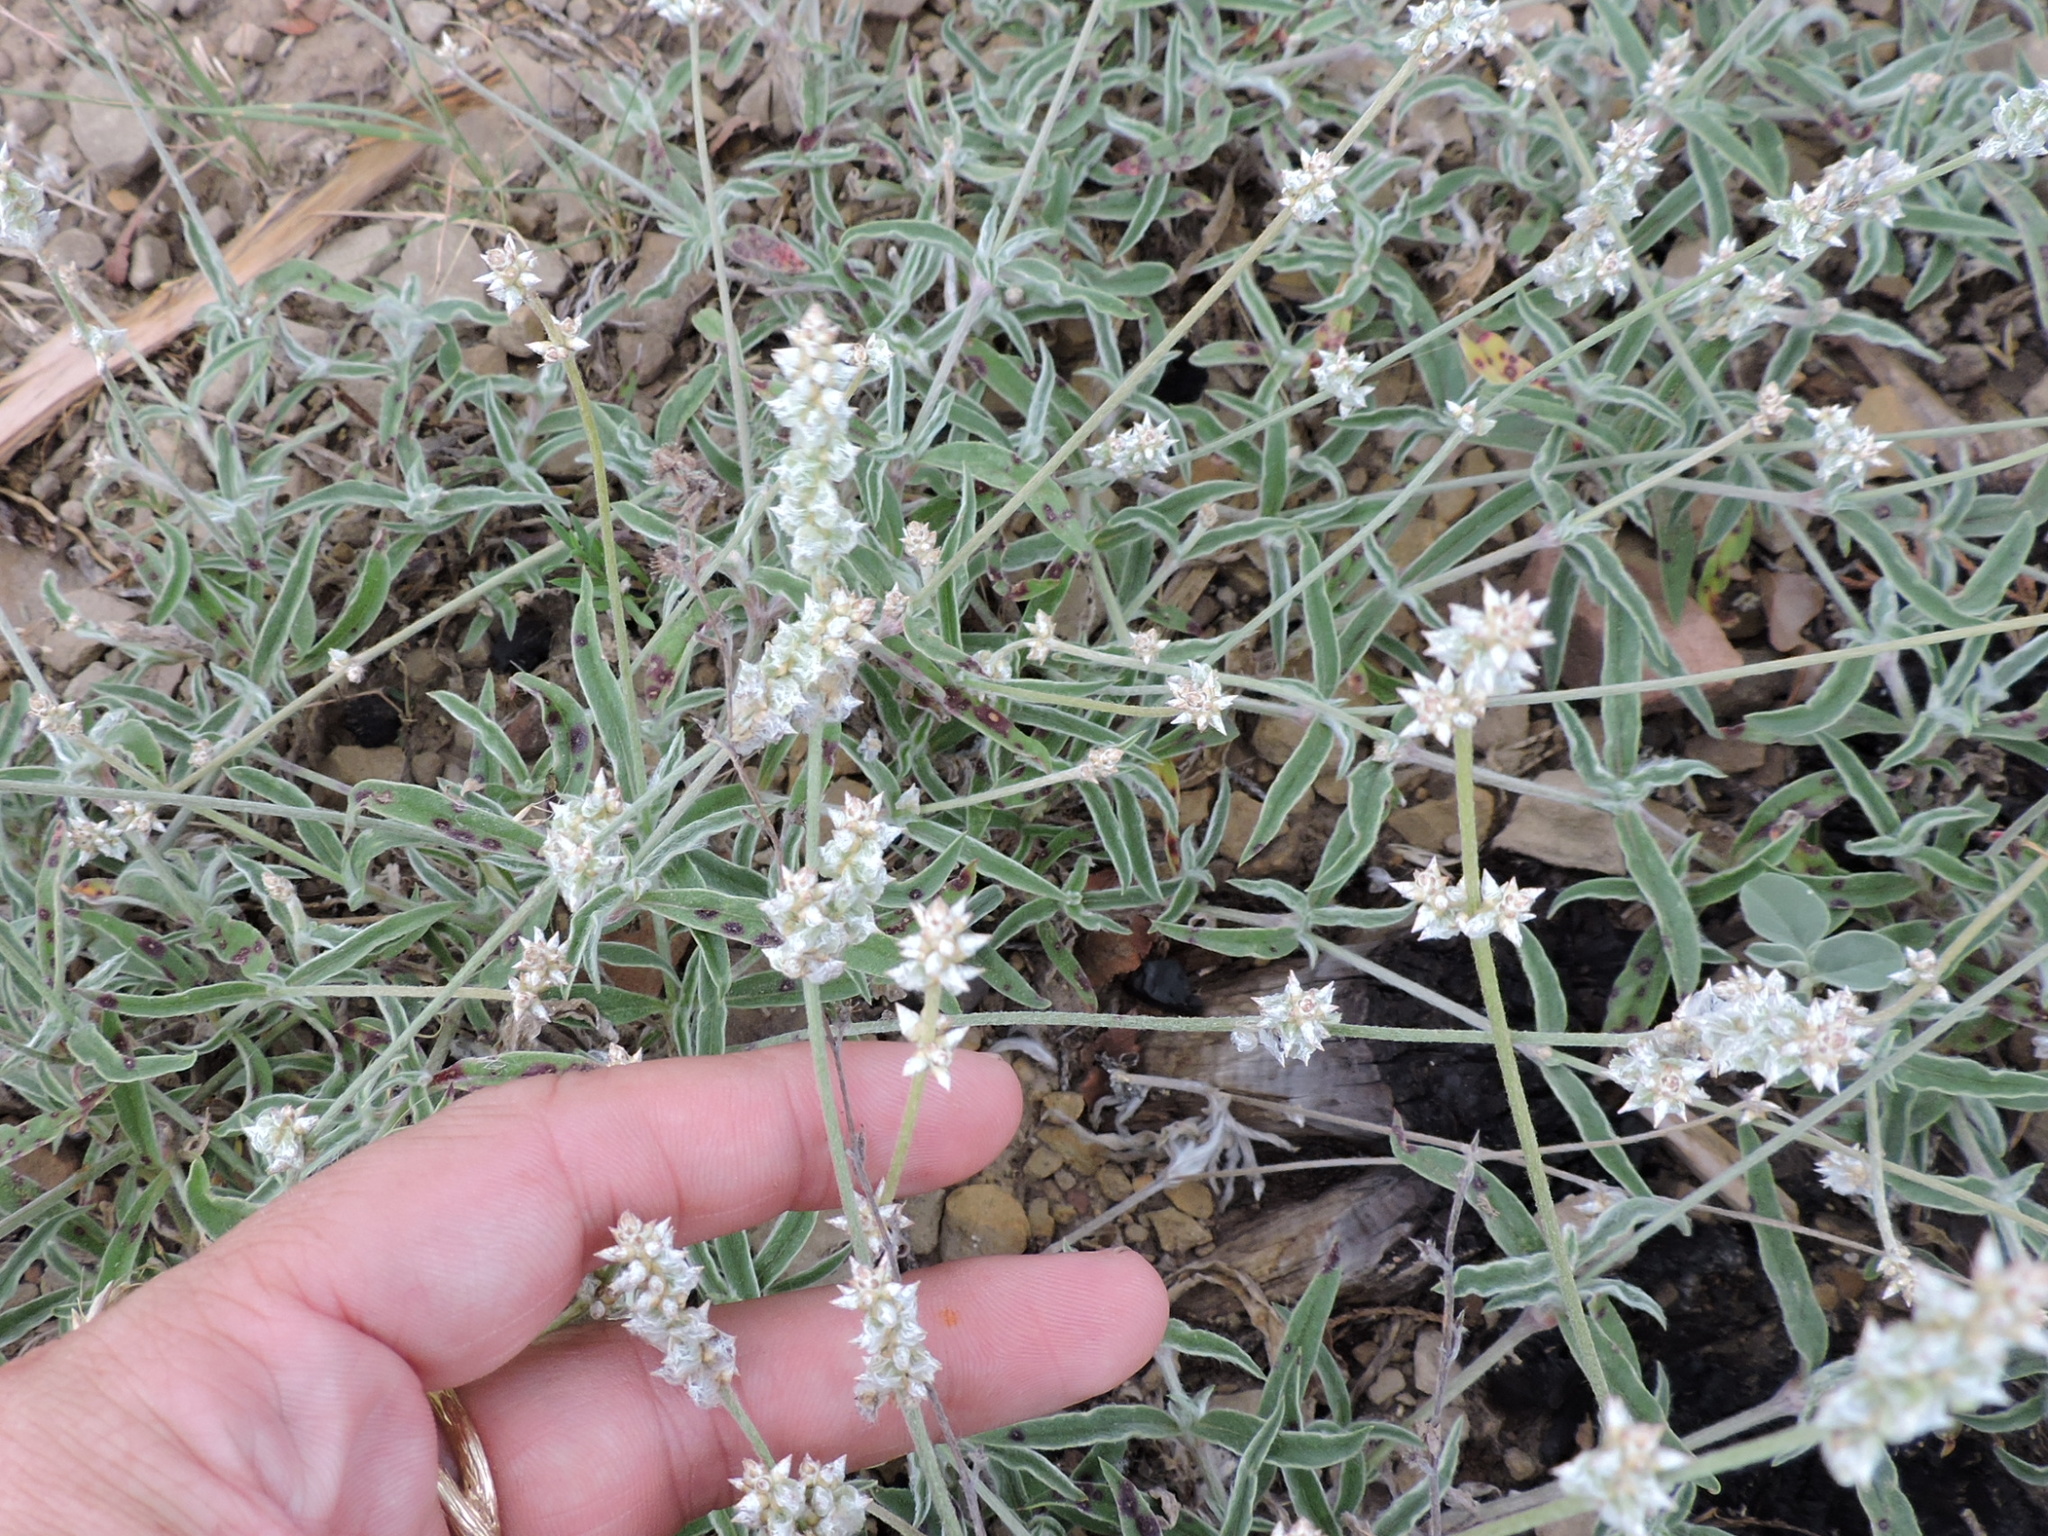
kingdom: Plantae
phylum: Tracheophyta
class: Magnoliopsida
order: Caryophyllales
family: Amaranthaceae
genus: Froelichia
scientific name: Froelichia gracilis
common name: Slender cottonweed
